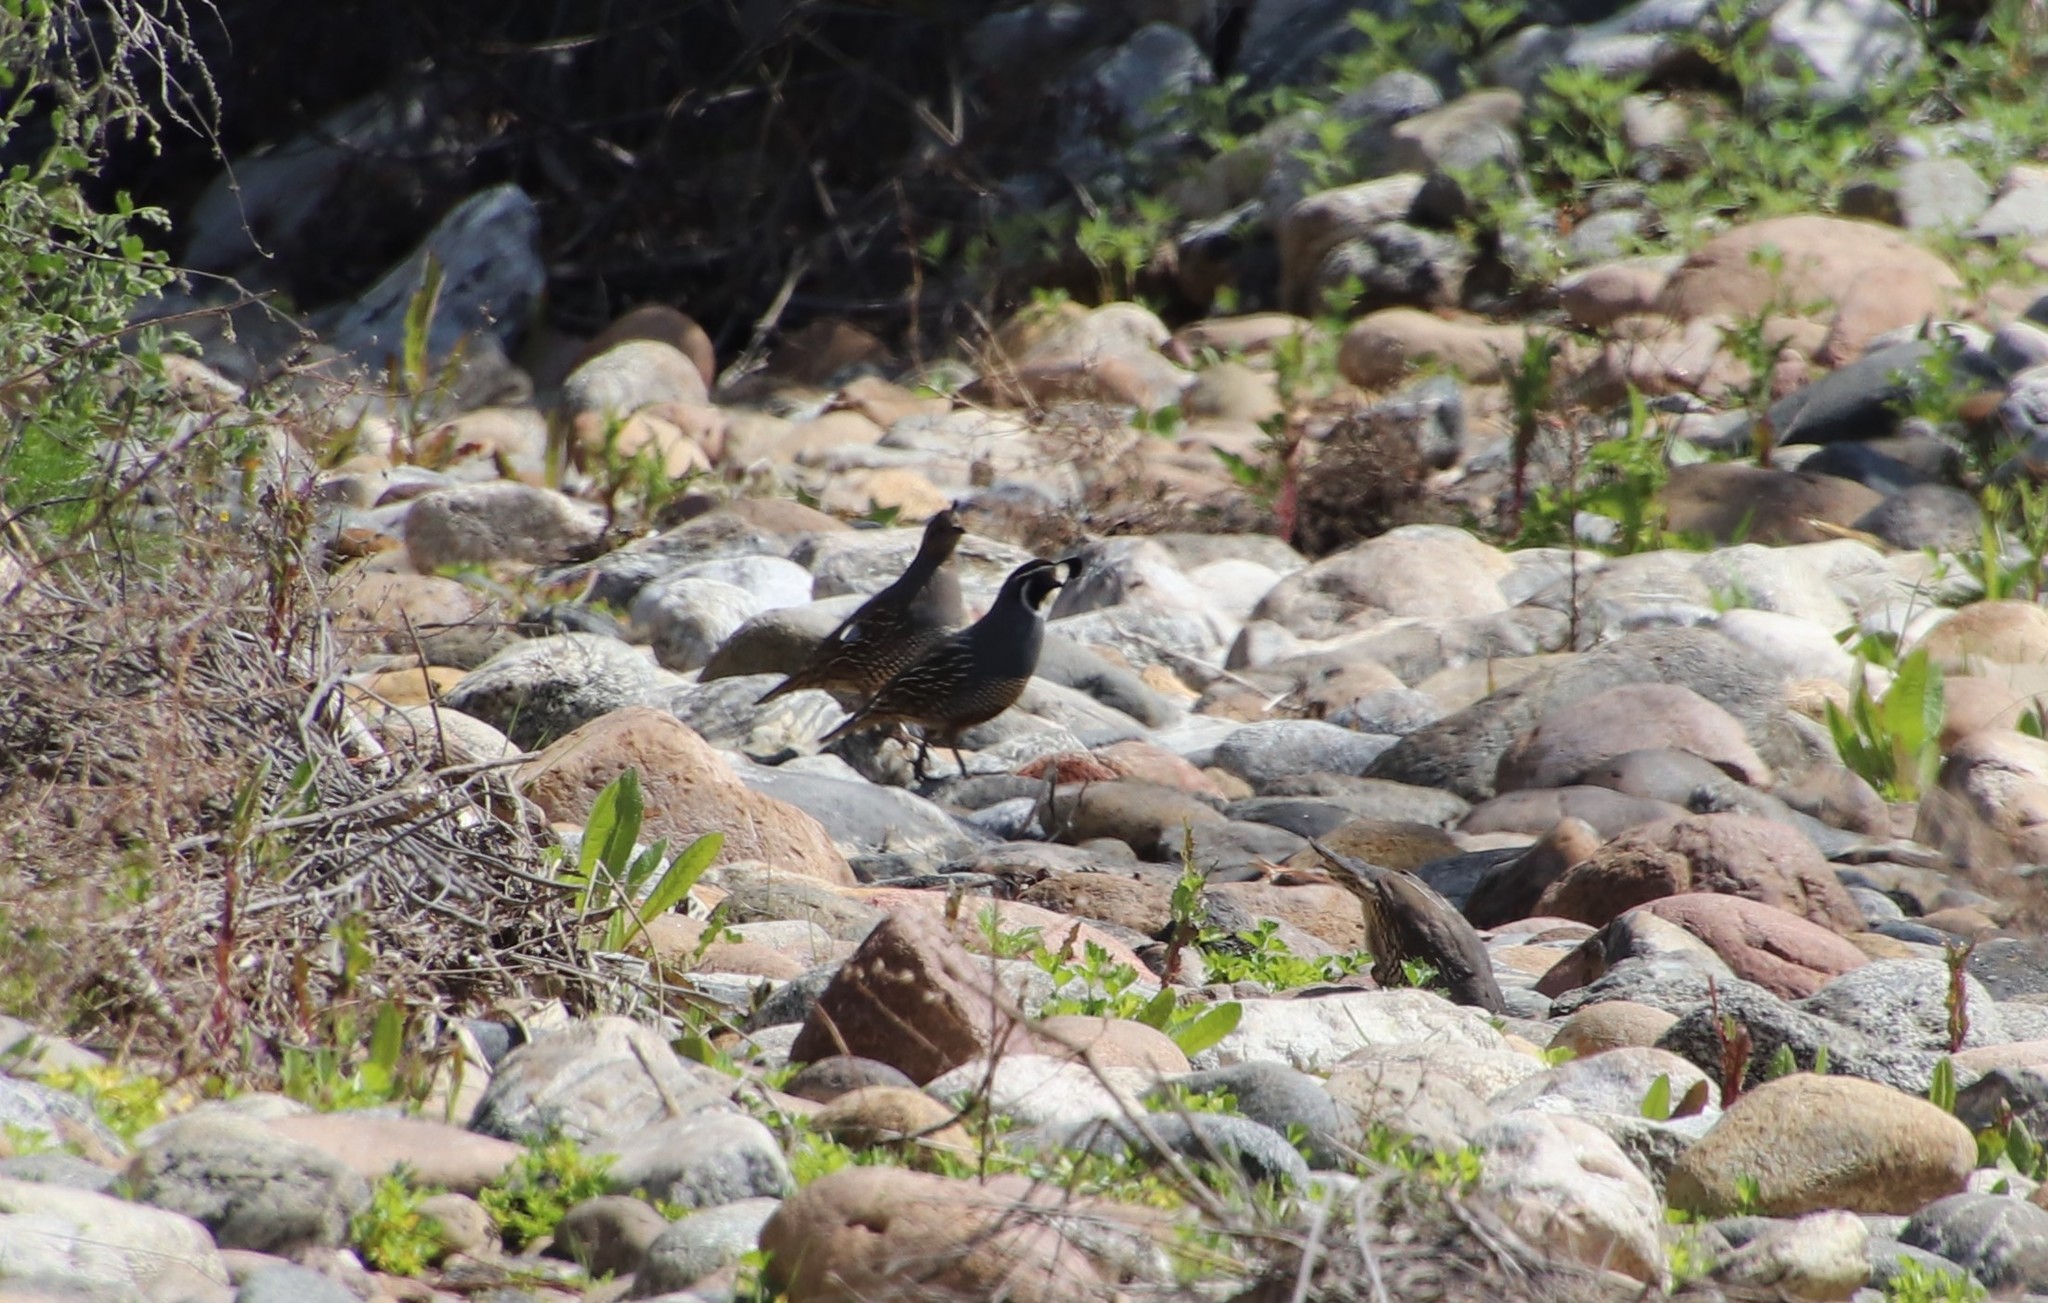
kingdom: Animalia
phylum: Chordata
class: Aves
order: Galliformes
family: Odontophoridae
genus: Callipepla
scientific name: Callipepla californica
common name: California quail
